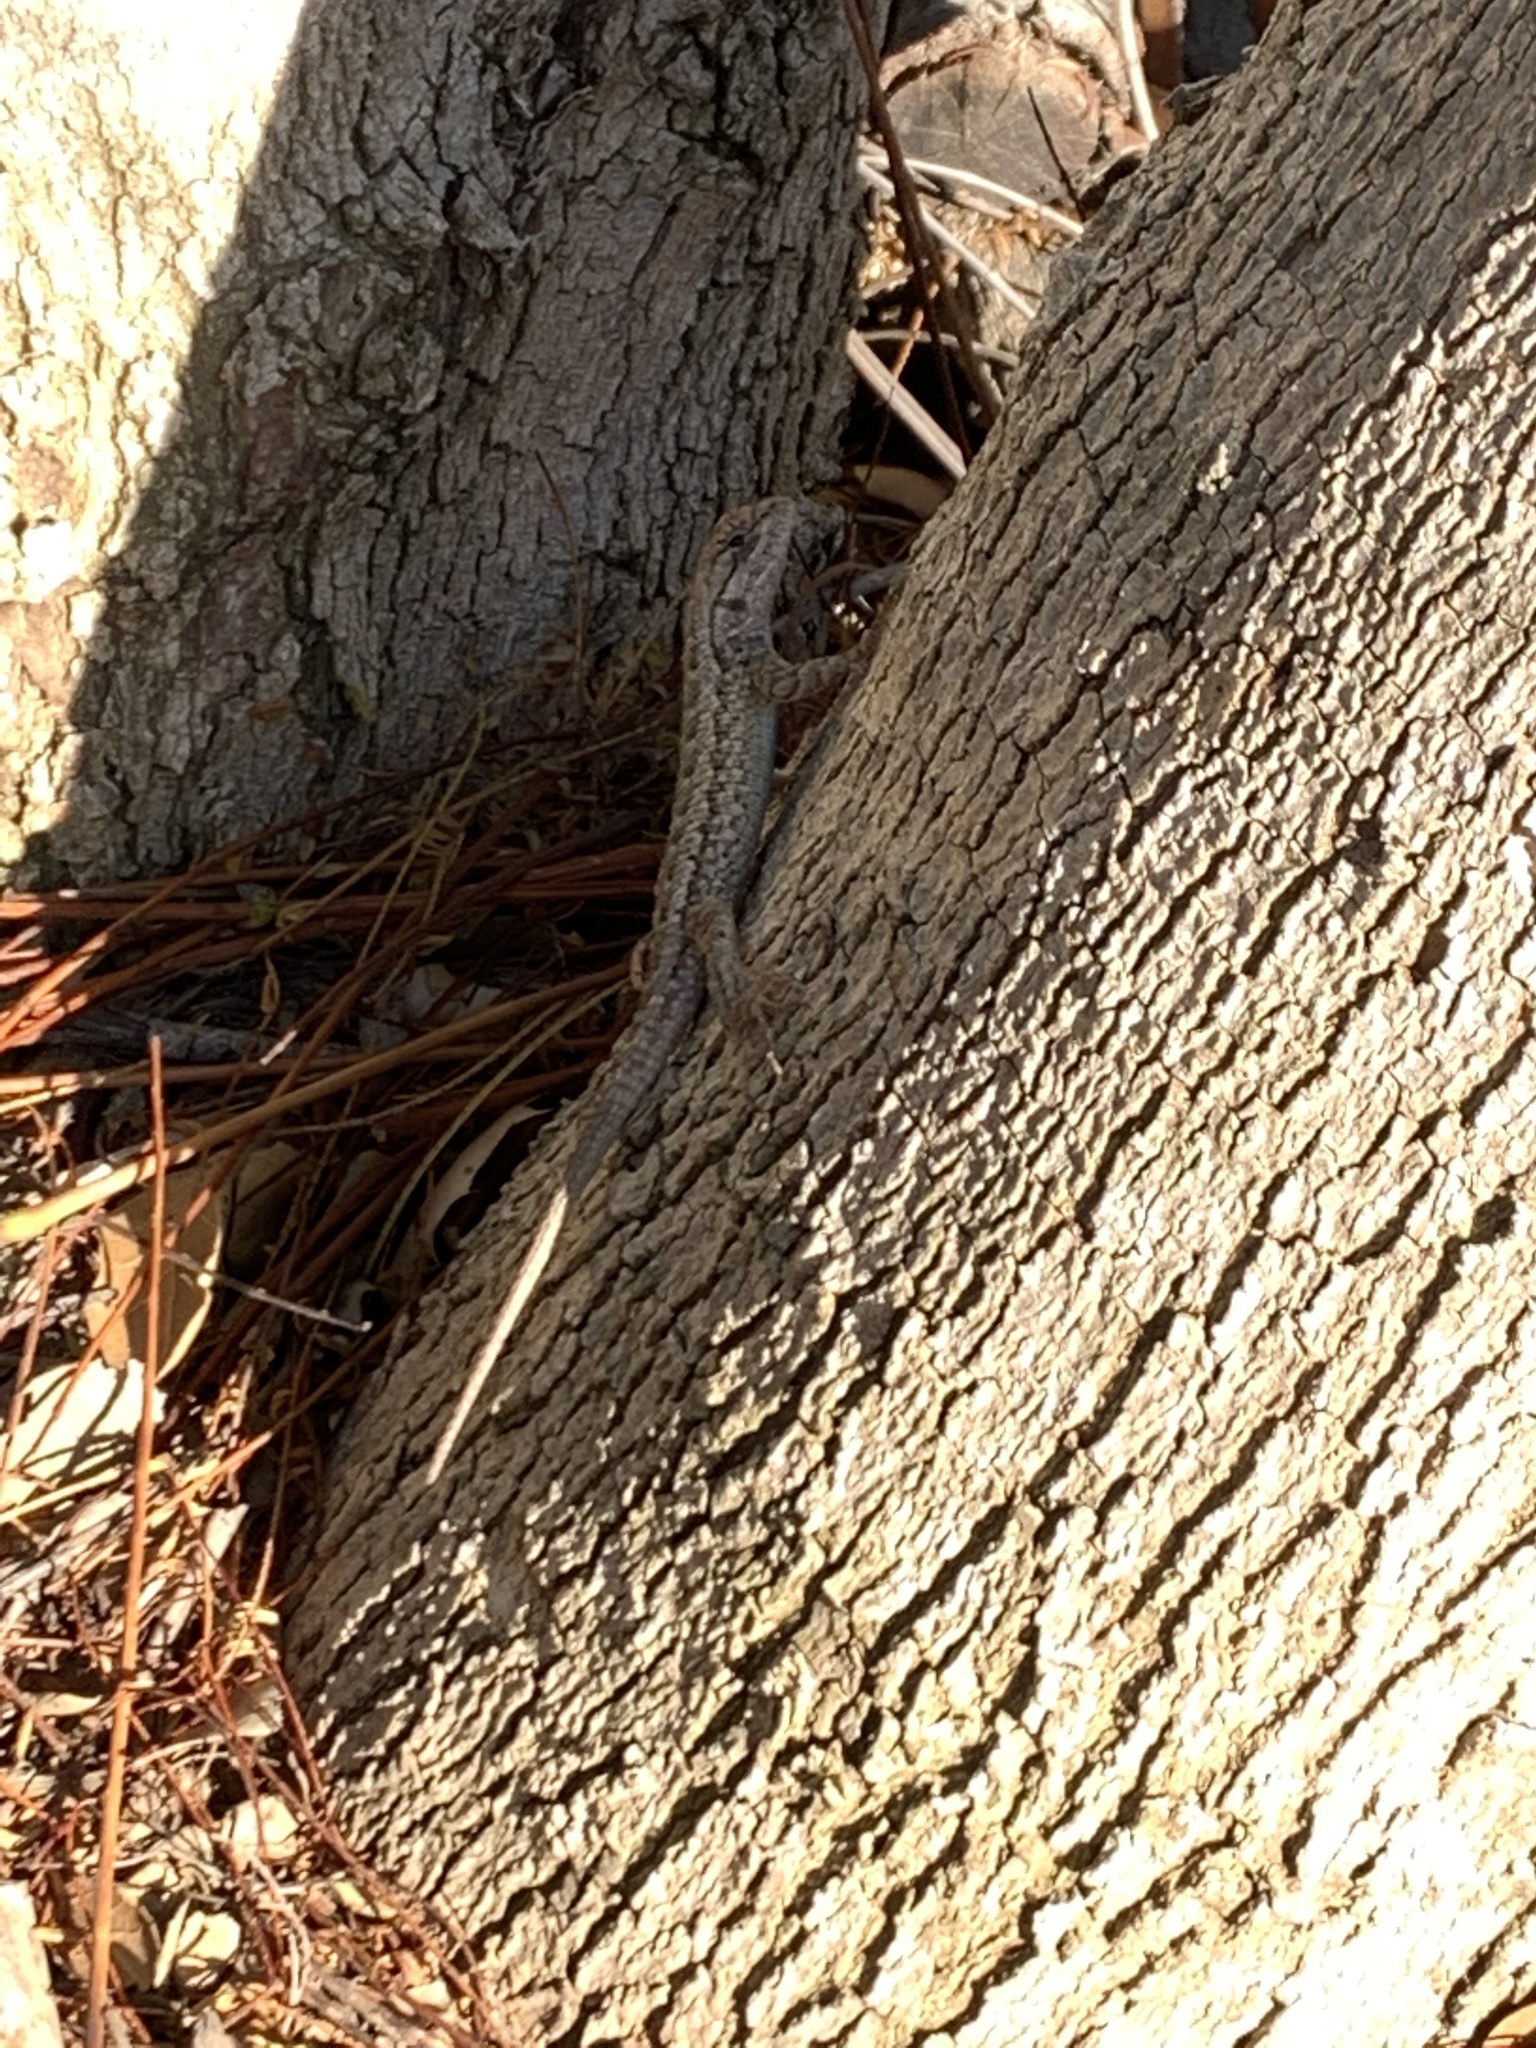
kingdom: Animalia
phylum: Chordata
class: Squamata
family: Phrynosomatidae
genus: Sceloporus
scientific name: Sceloporus occidentalis
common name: Western fence lizard
